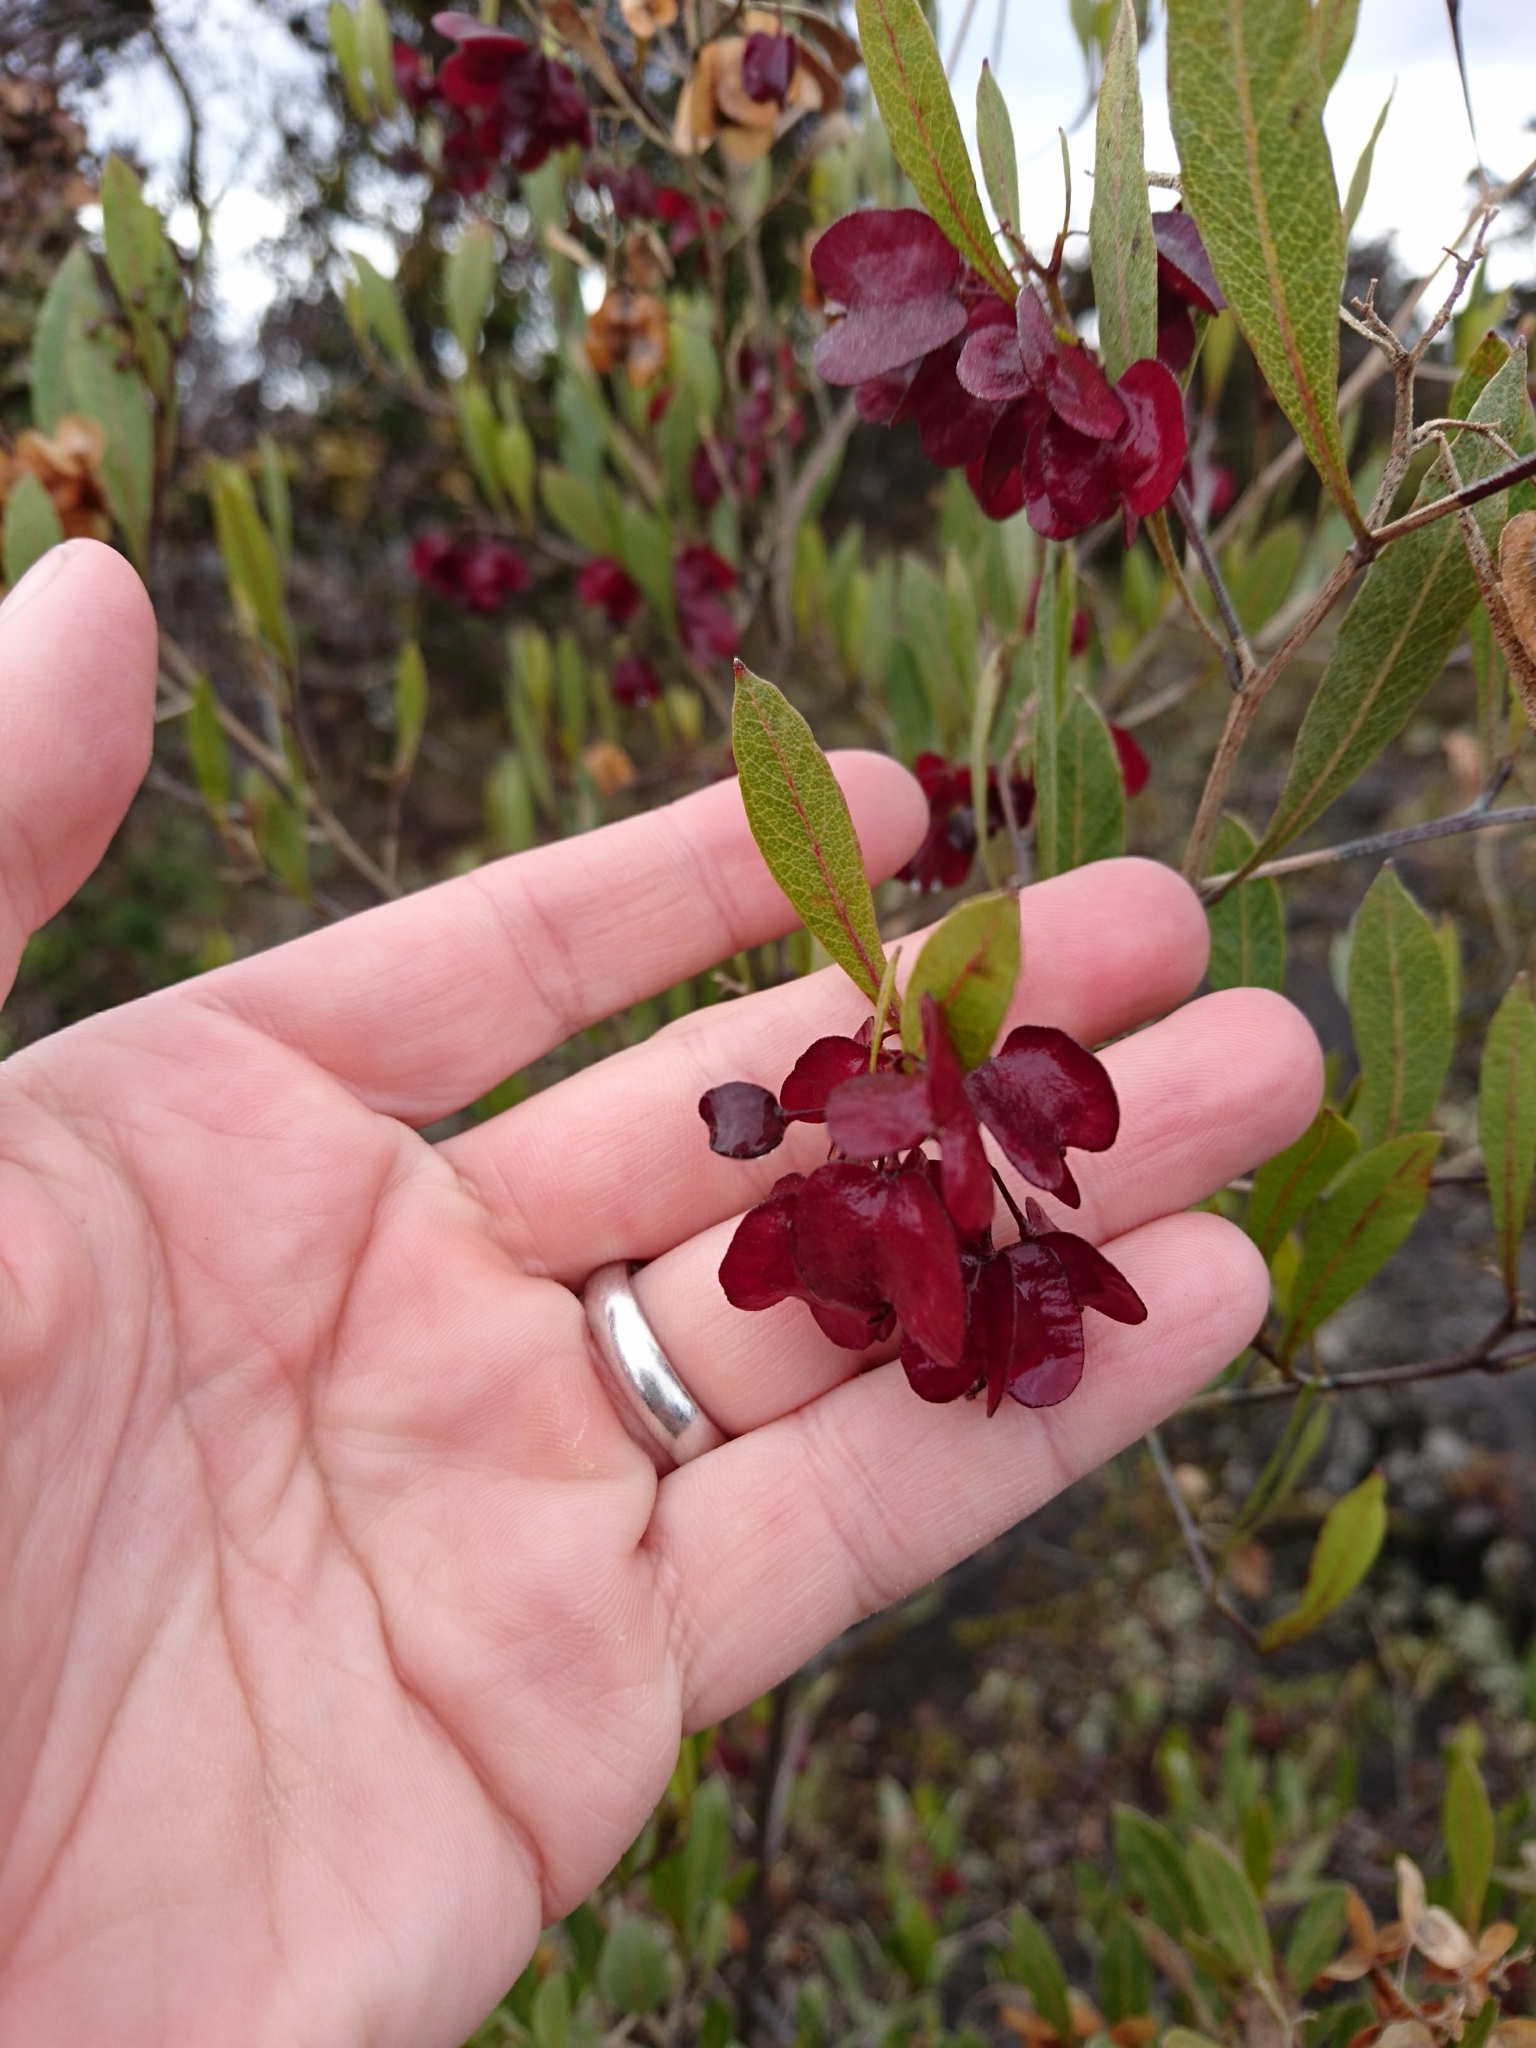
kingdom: Plantae
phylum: Tracheophyta
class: Magnoliopsida
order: Sapindales
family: Sapindaceae
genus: Dodonaea
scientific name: Dodonaea viscosa
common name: Hopbush
